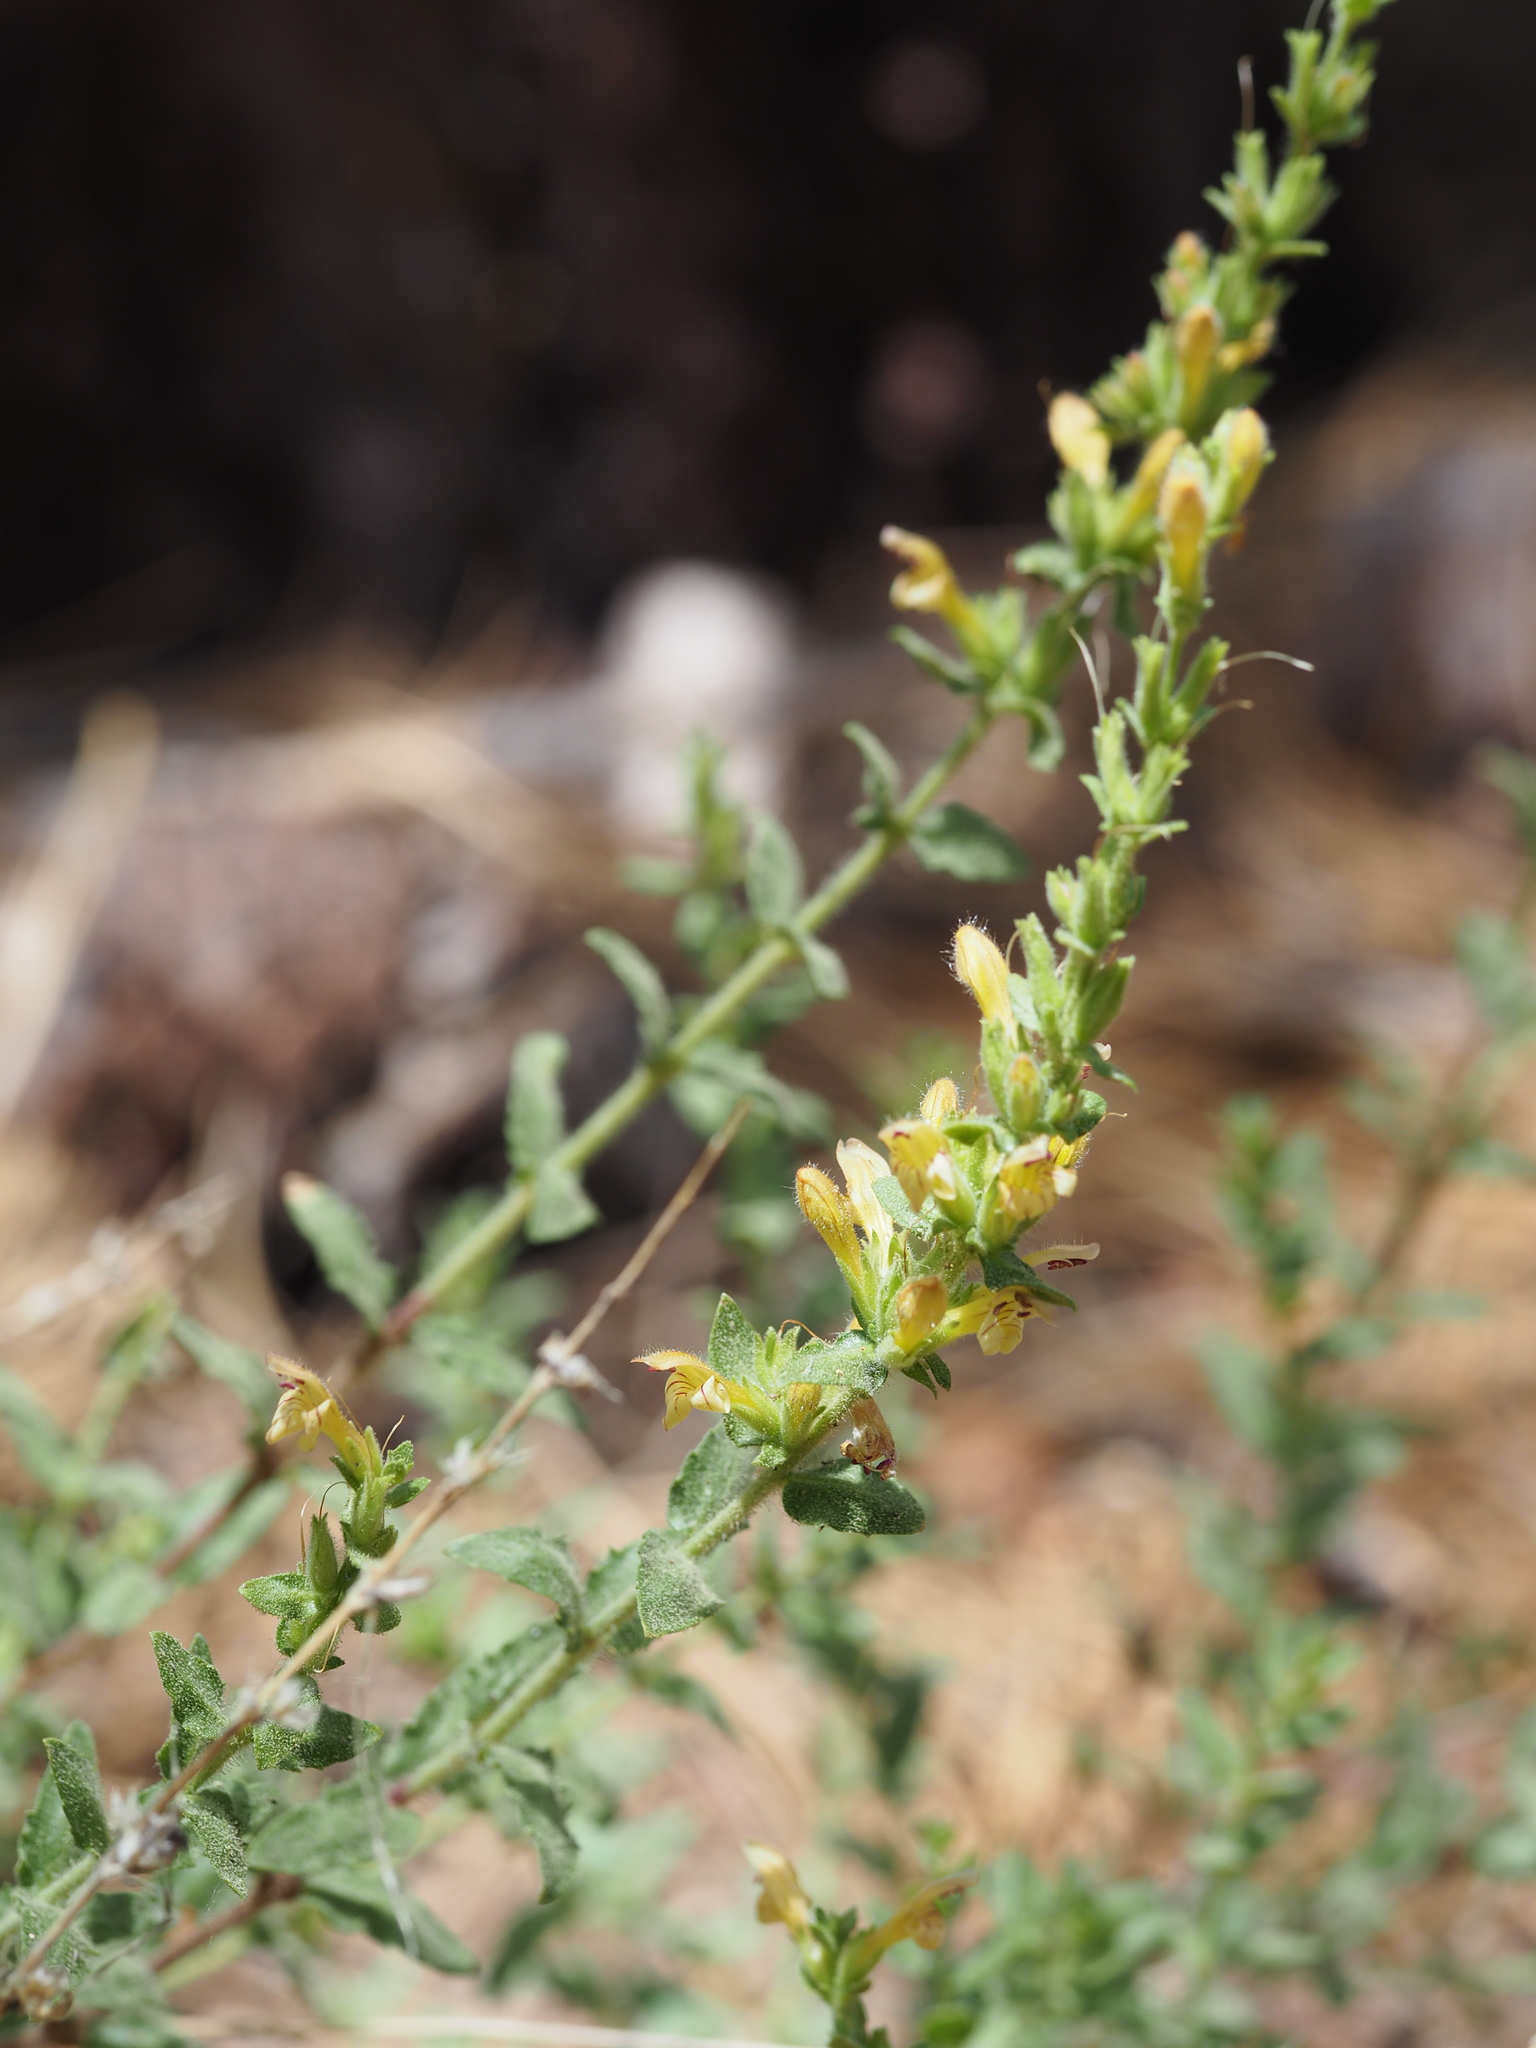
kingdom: Plantae
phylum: Tracheophyta
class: Magnoliopsida
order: Lamiales
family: Plantaginaceae
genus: Keckiella
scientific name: Keckiella rothrockii
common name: Rothrock's keckiella
